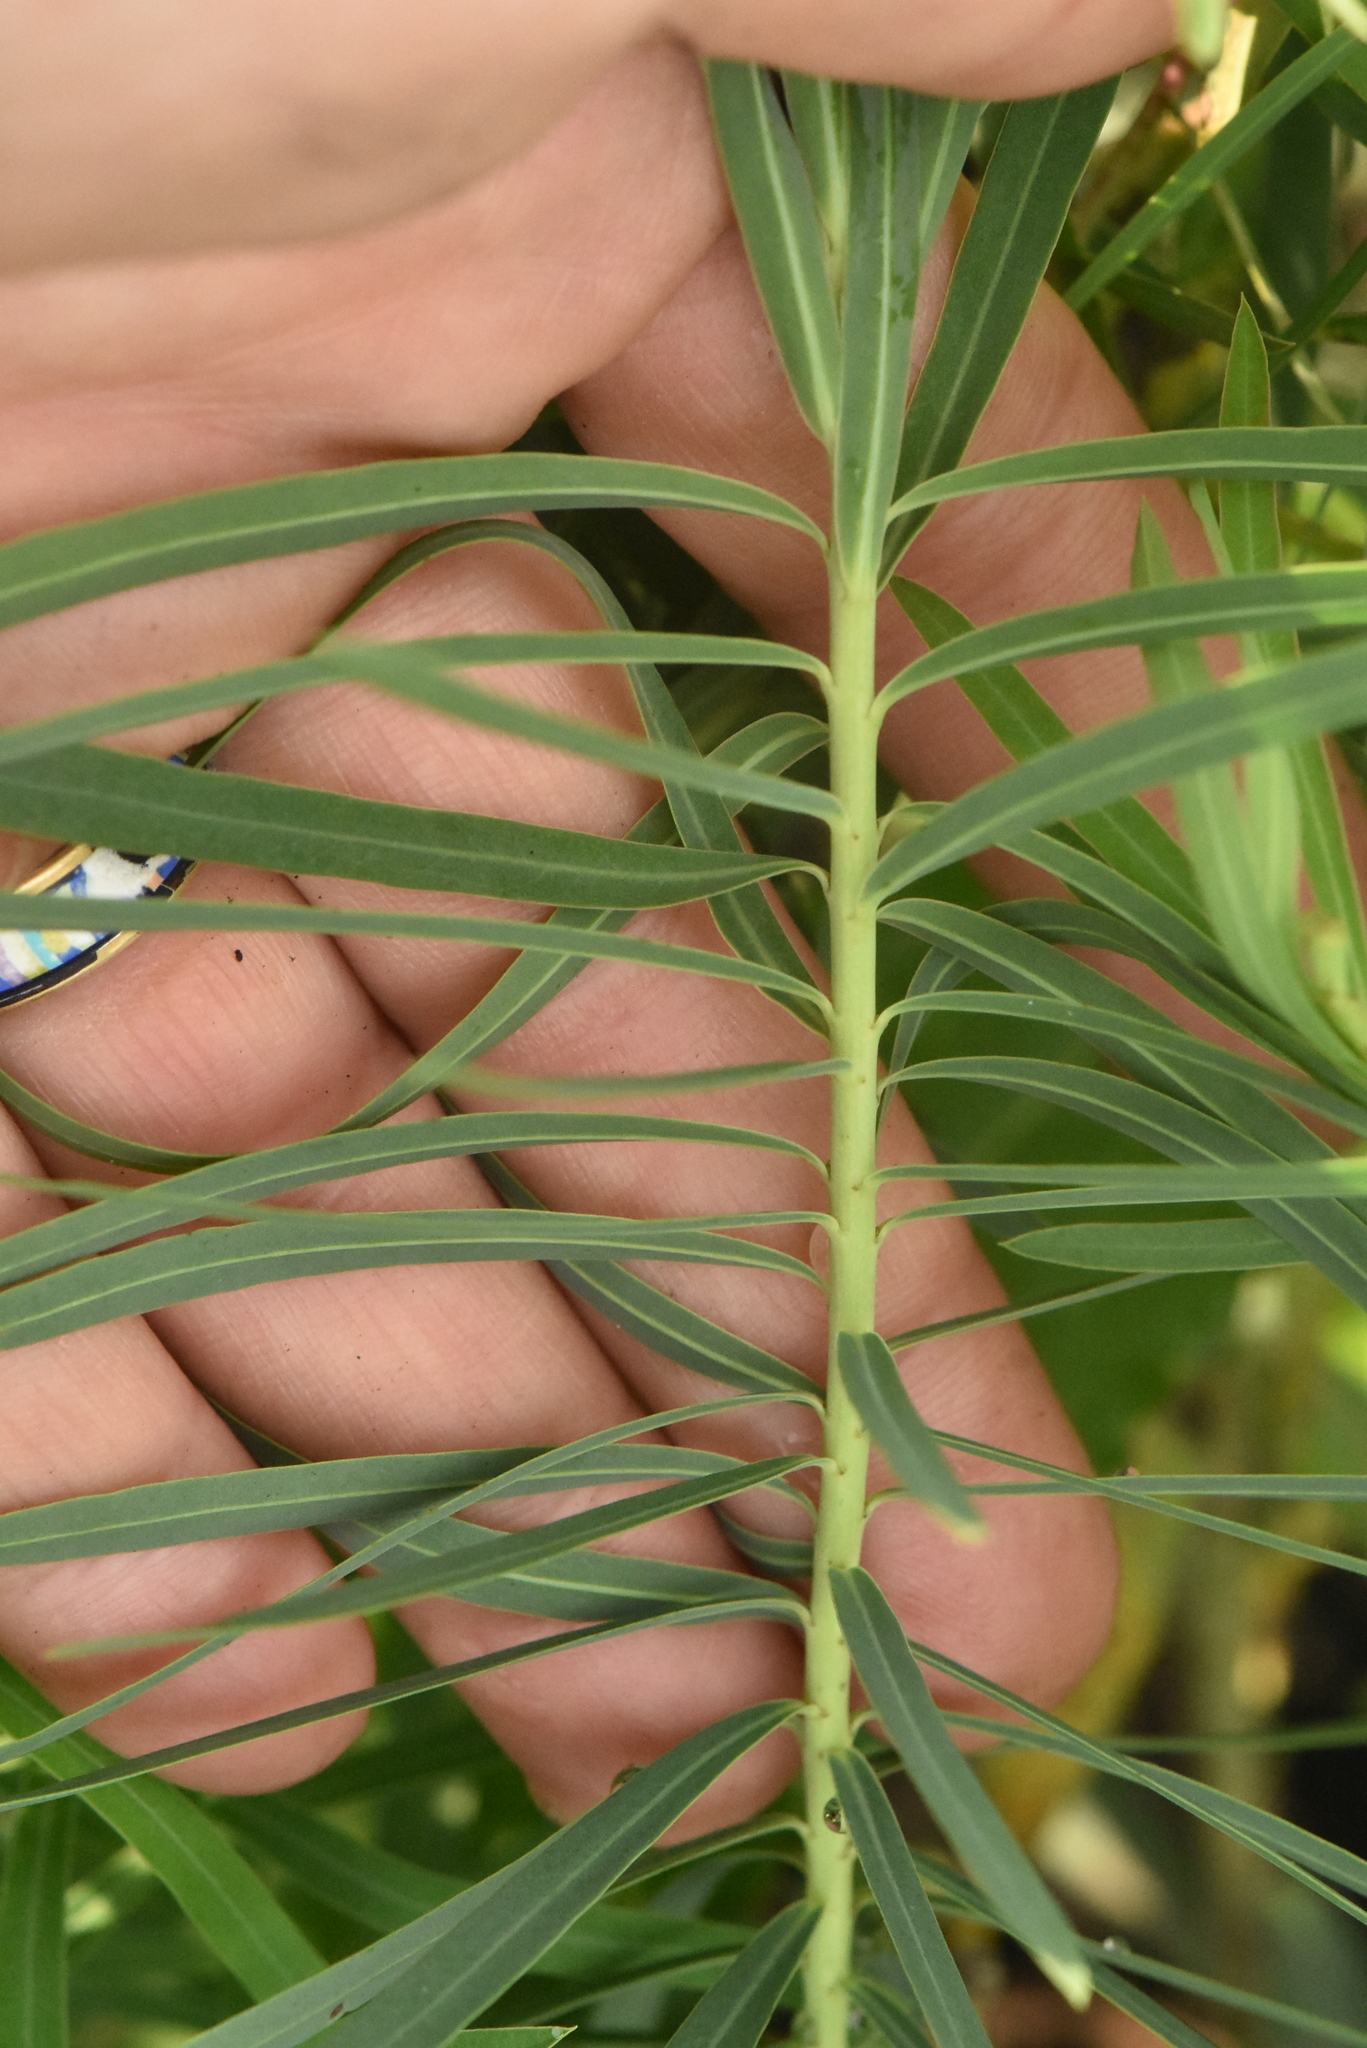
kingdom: Plantae
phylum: Tracheophyta
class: Magnoliopsida
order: Malpighiales
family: Euphorbiaceae
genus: Euphorbia
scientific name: Euphorbia virgata
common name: Leafy spurge
